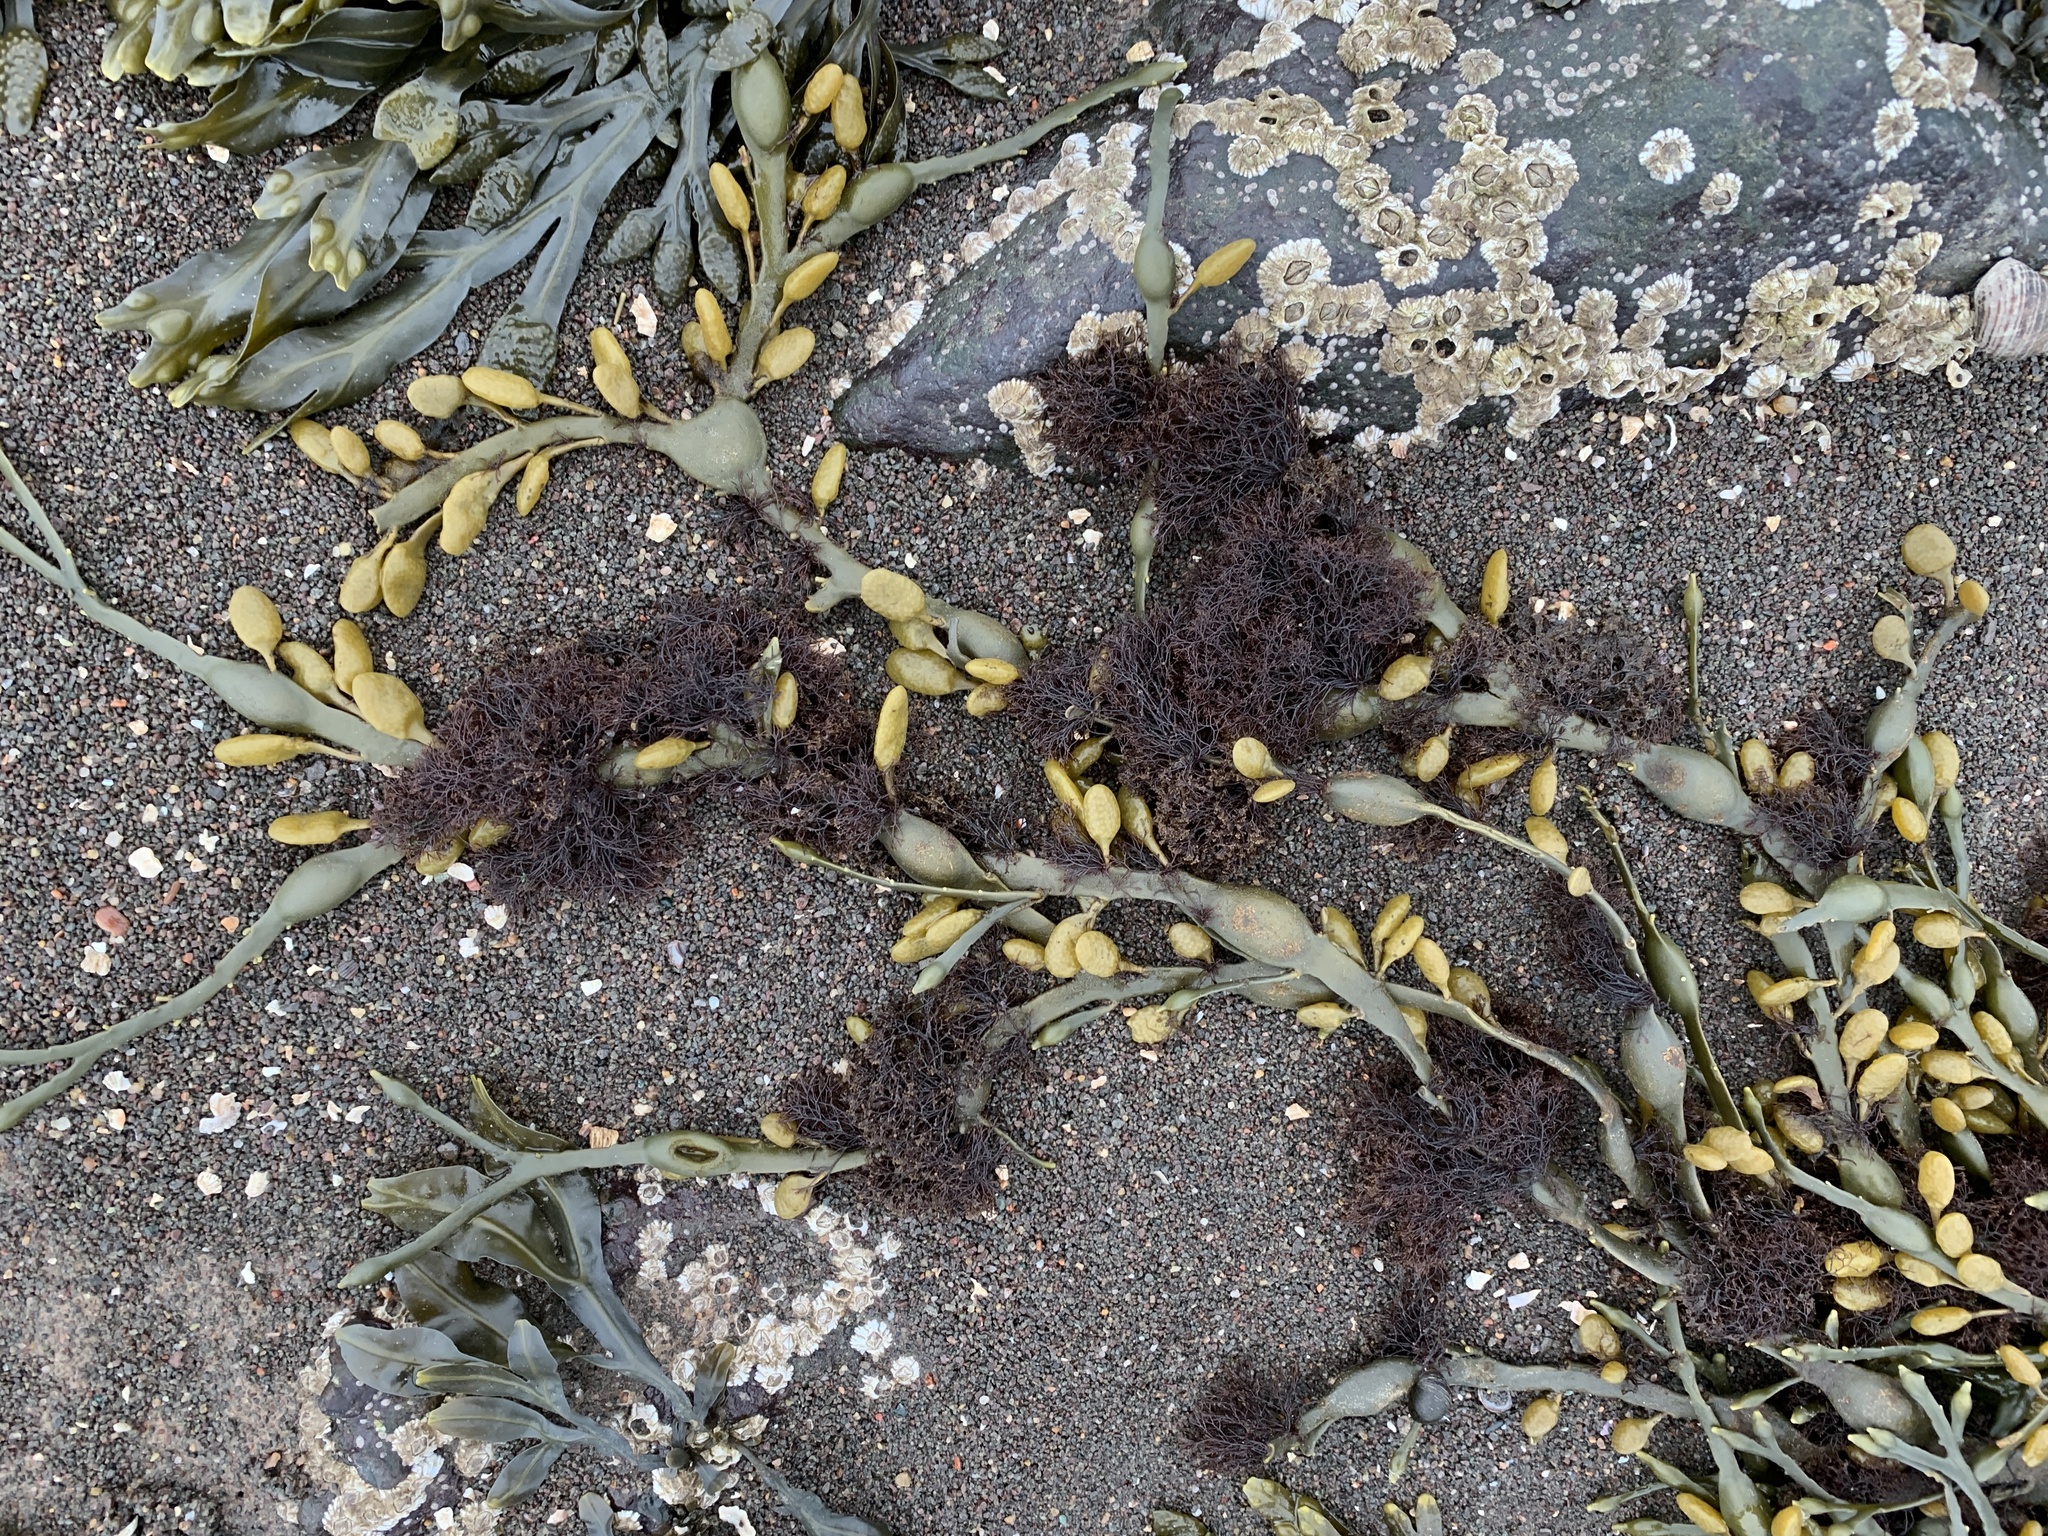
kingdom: Plantae
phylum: Rhodophyta
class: Florideophyceae
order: Ceramiales
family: Rhodomelaceae
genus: Vertebrata
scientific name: Vertebrata lanosa
